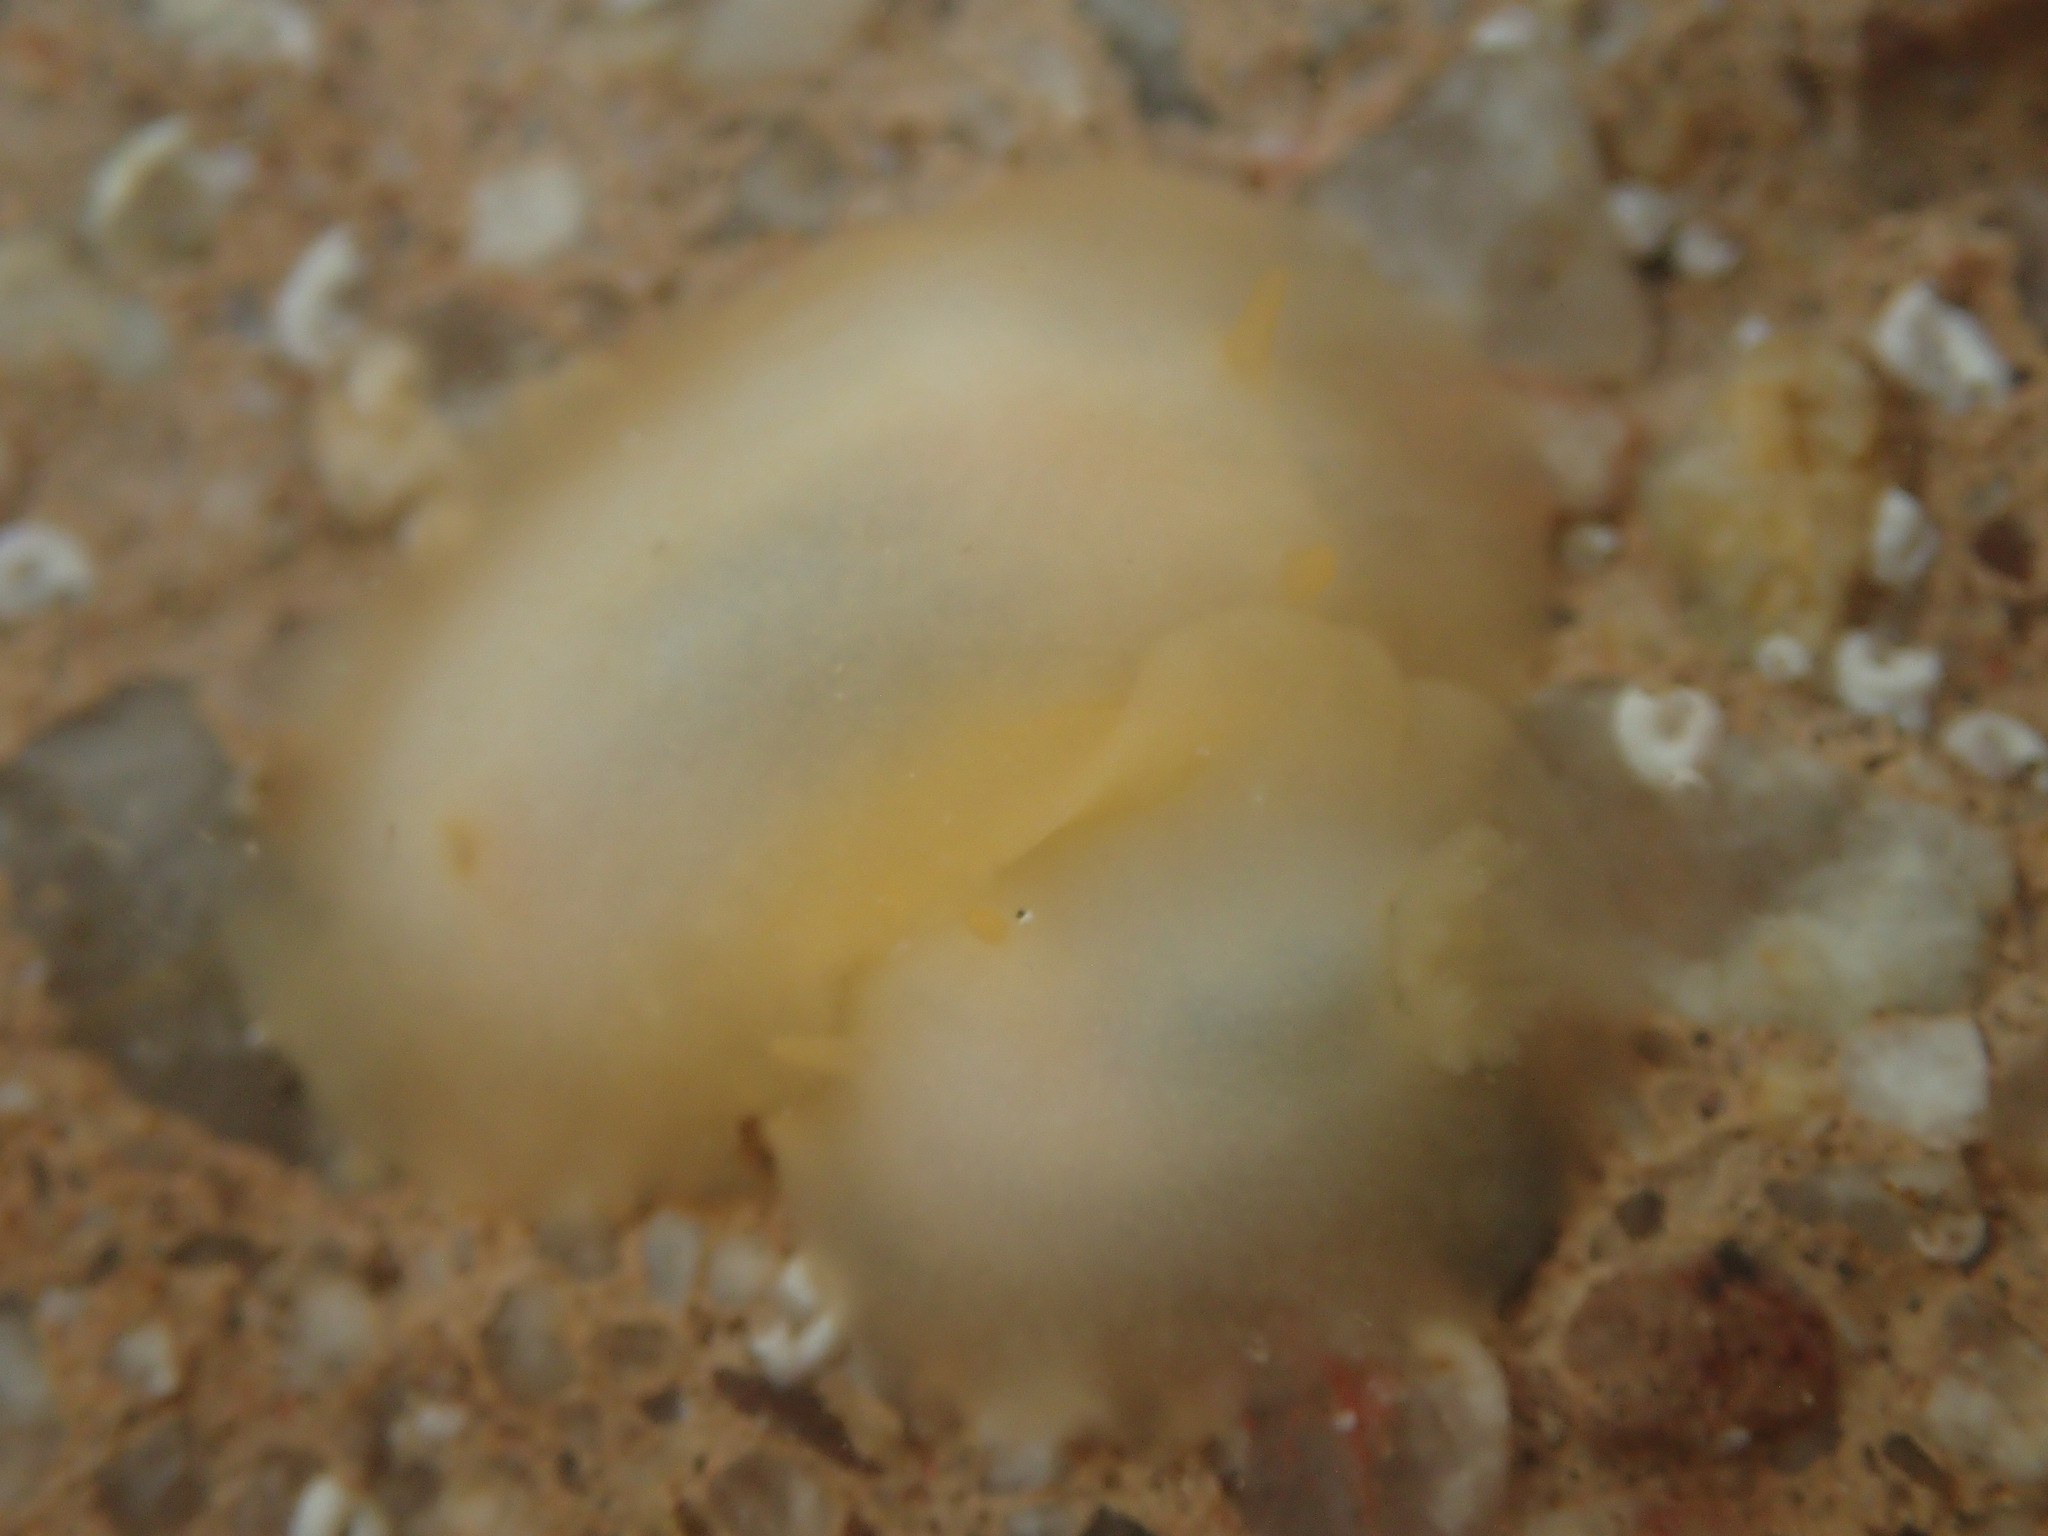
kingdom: Animalia
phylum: Mollusca
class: Gastropoda
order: Nudibranchia
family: Dorididae
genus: Conualevia
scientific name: Conualevia marcusi
